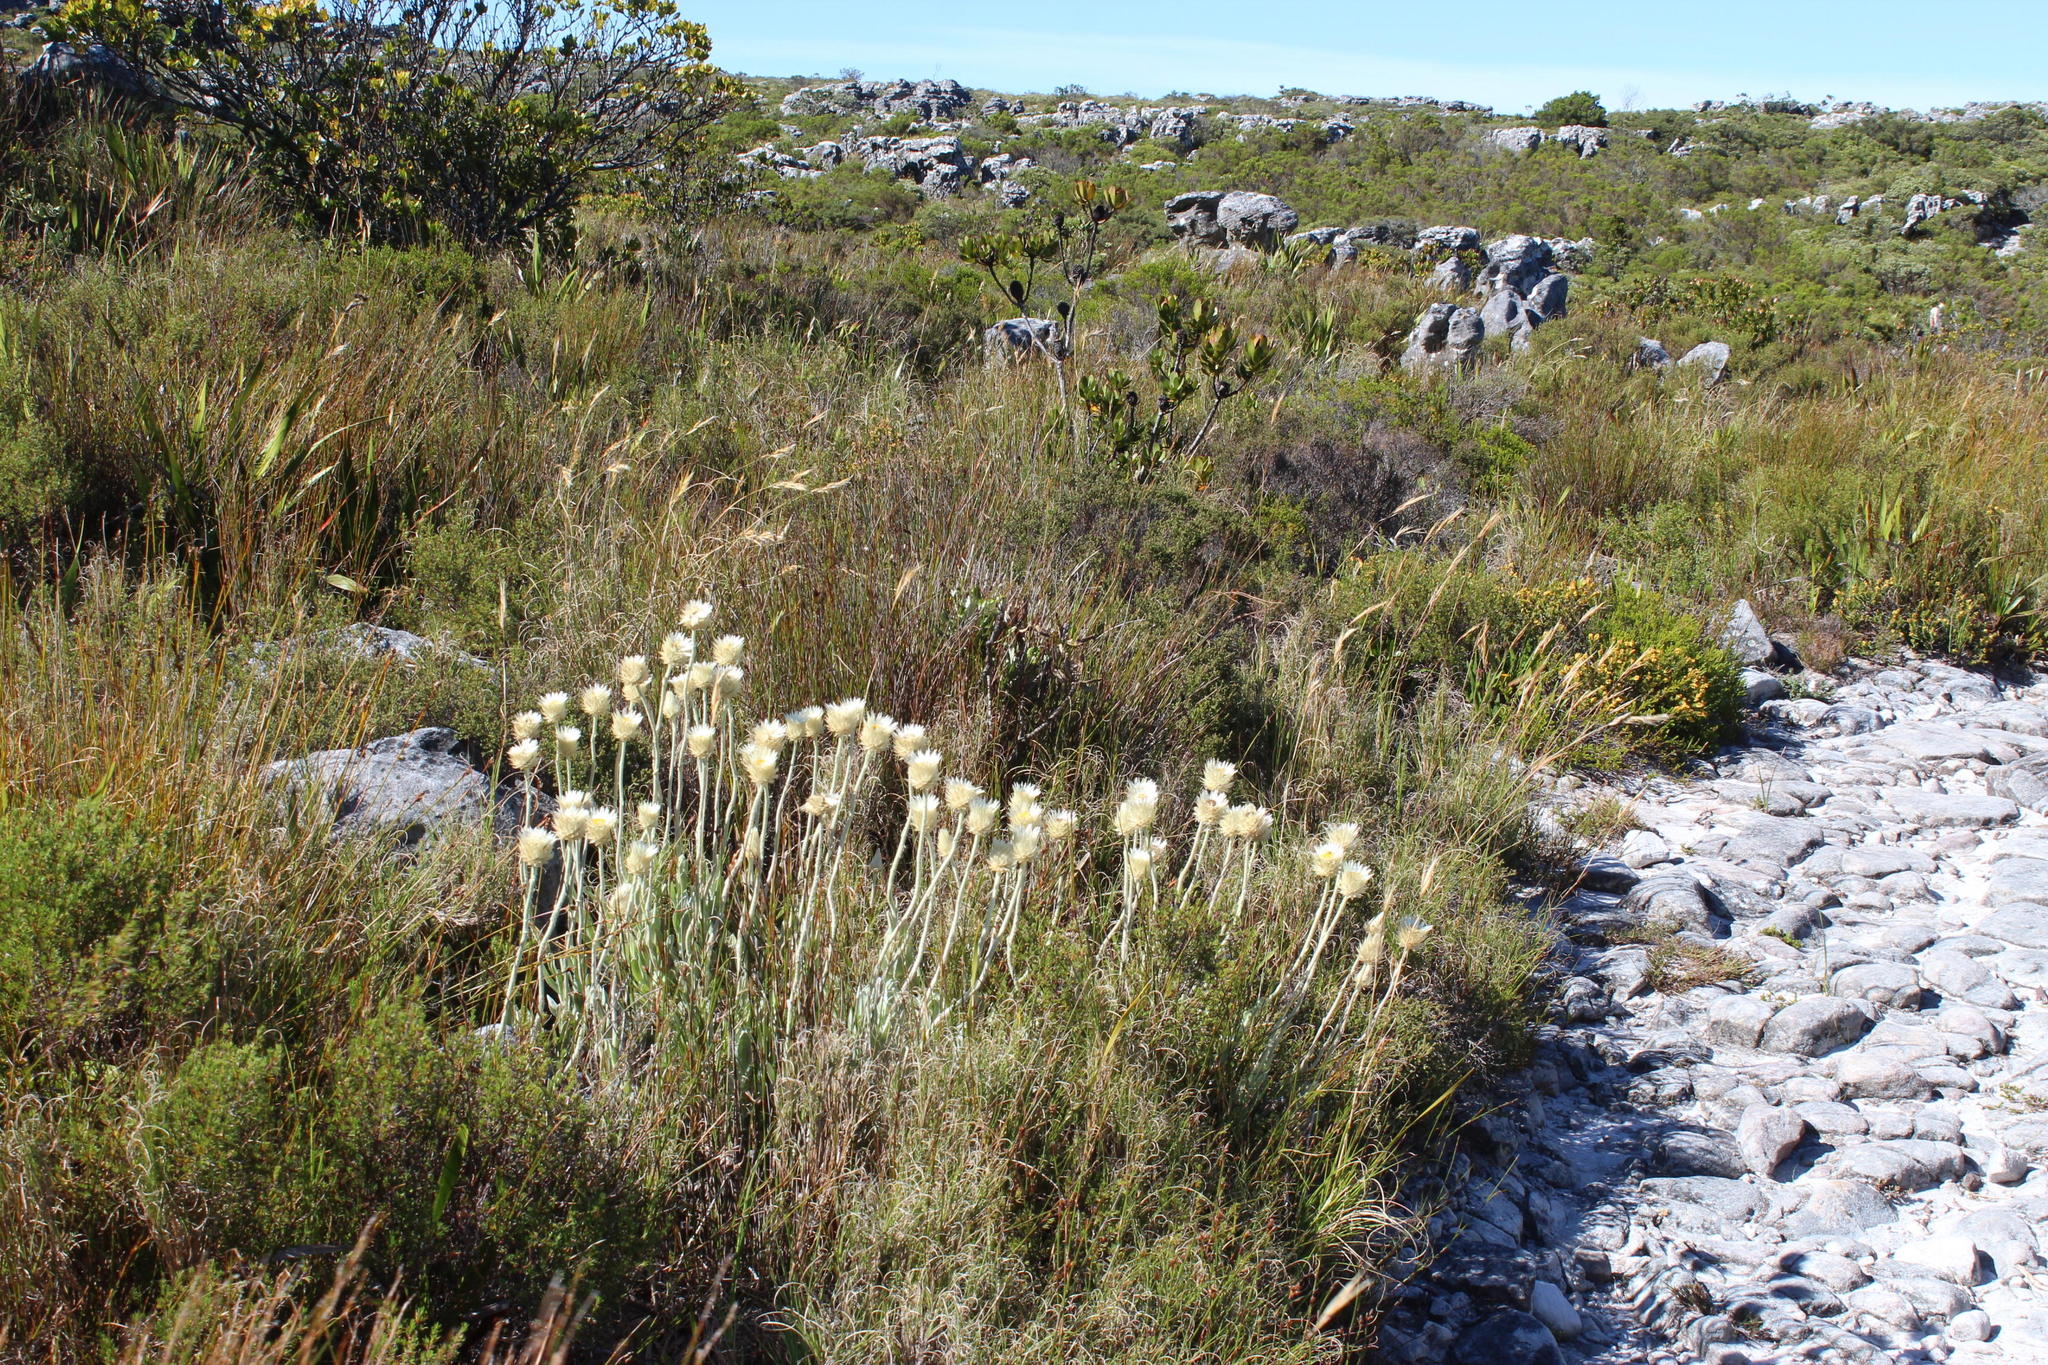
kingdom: Plantae
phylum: Tracheophyta
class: Magnoliopsida
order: Asterales
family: Asteraceae
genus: Syncarpha
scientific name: Syncarpha speciosissima
